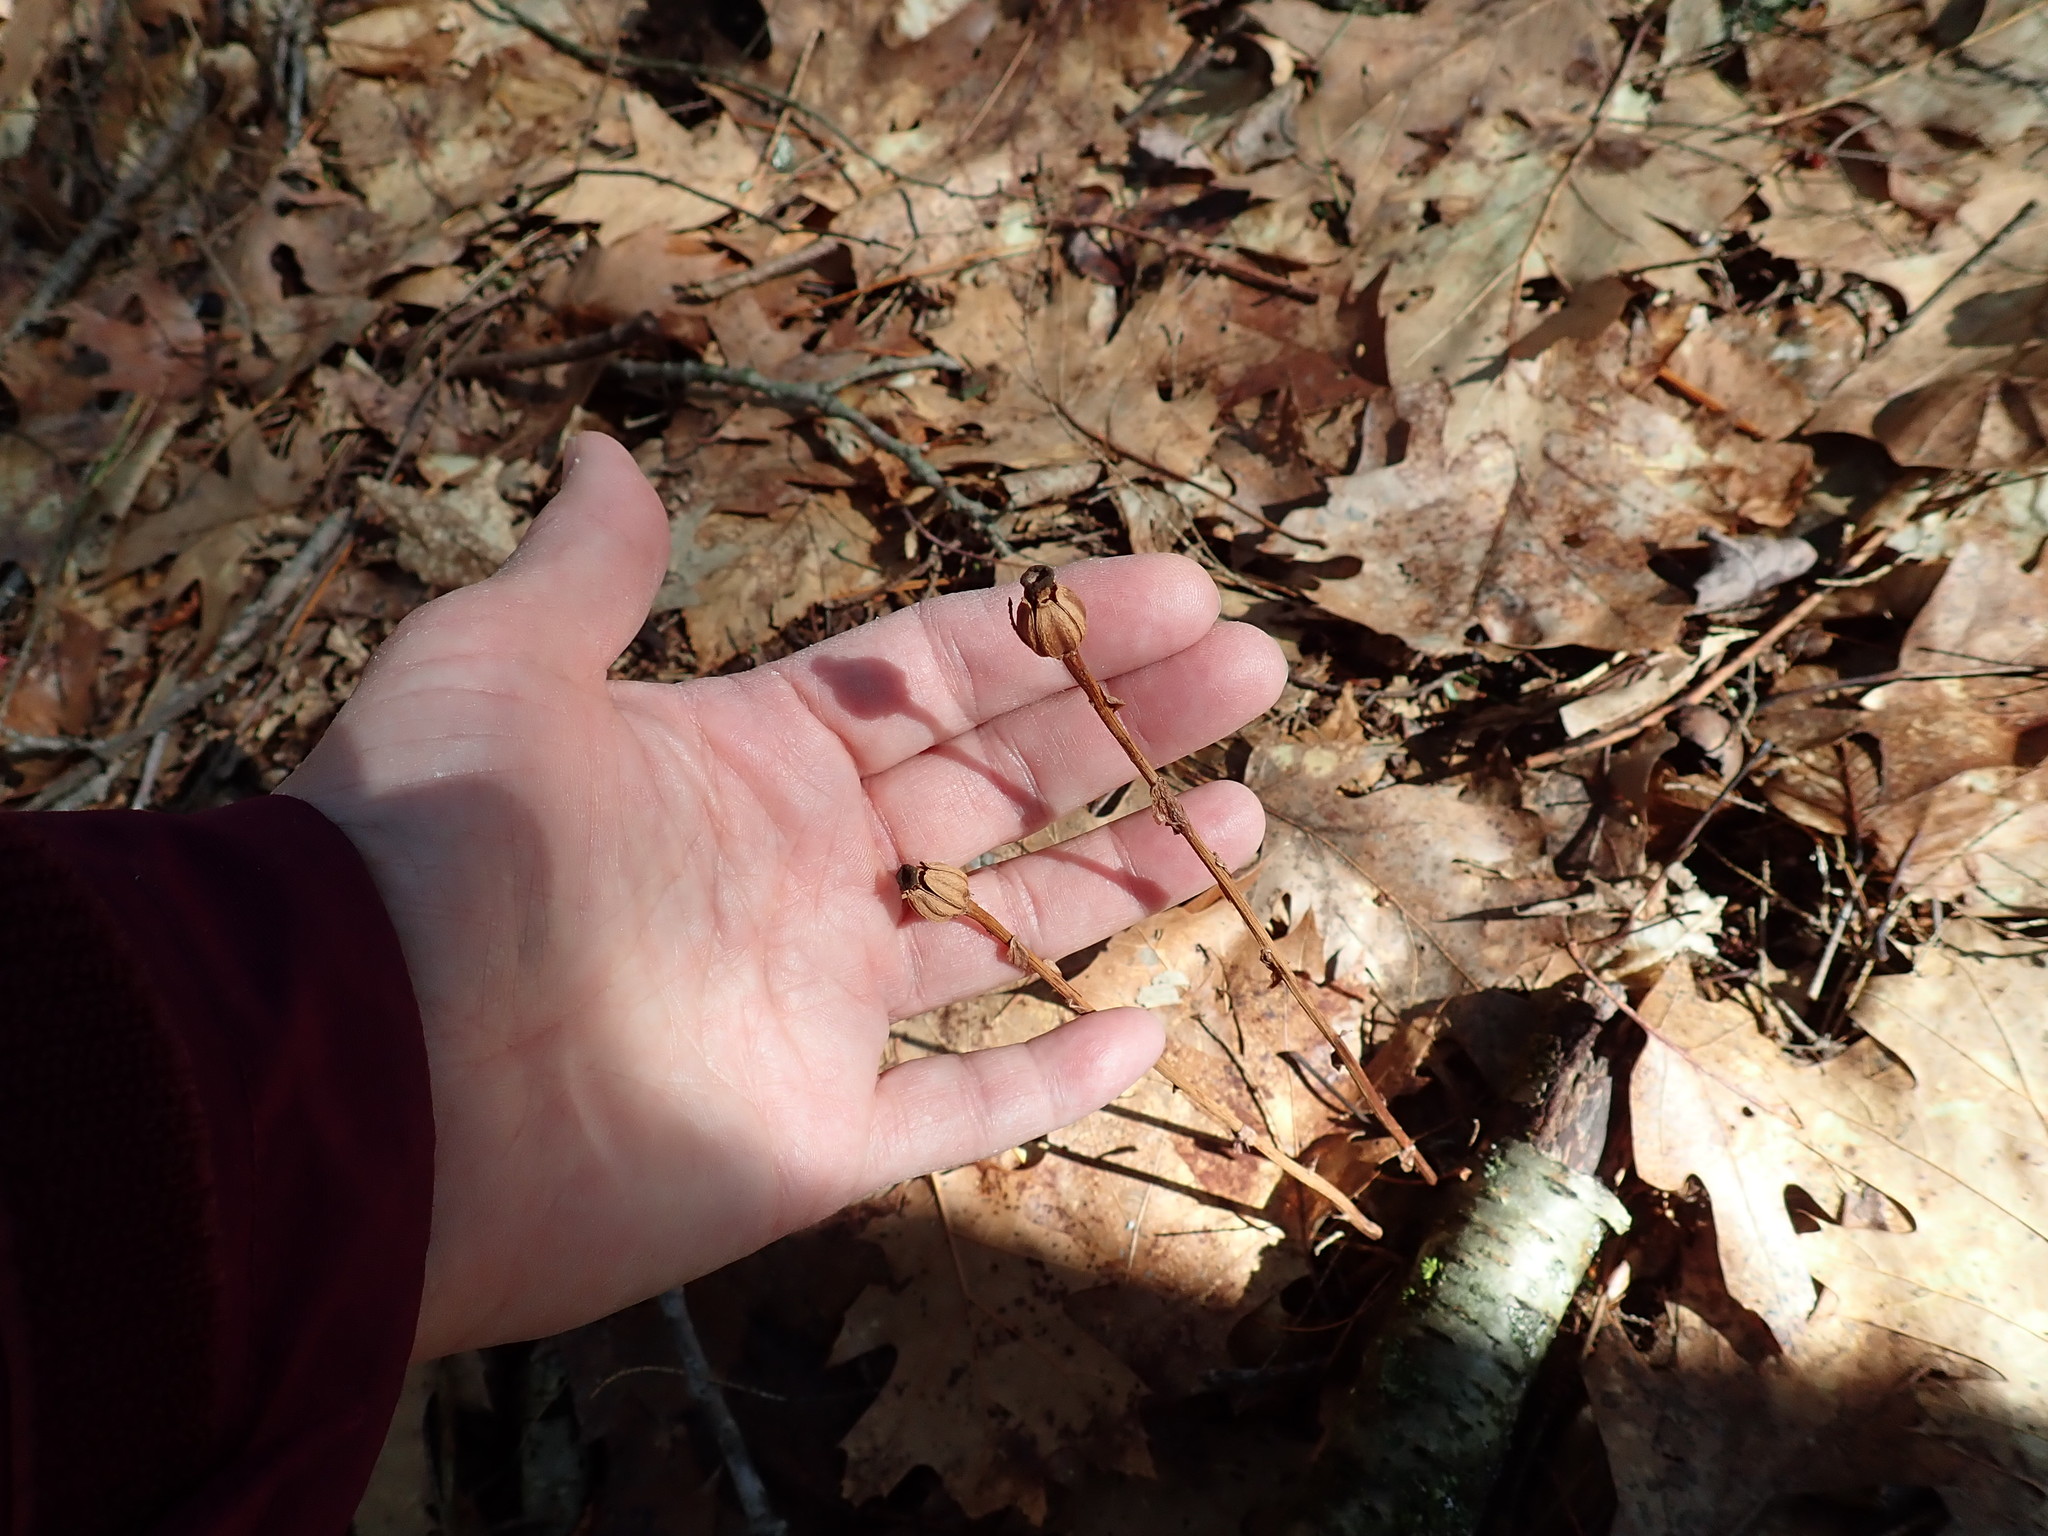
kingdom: Plantae
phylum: Tracheophyta
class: Magnoliopsida
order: Ericales
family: Ericaceae
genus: Monotropa
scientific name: Monotropa uniflora
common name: Convulsion root
